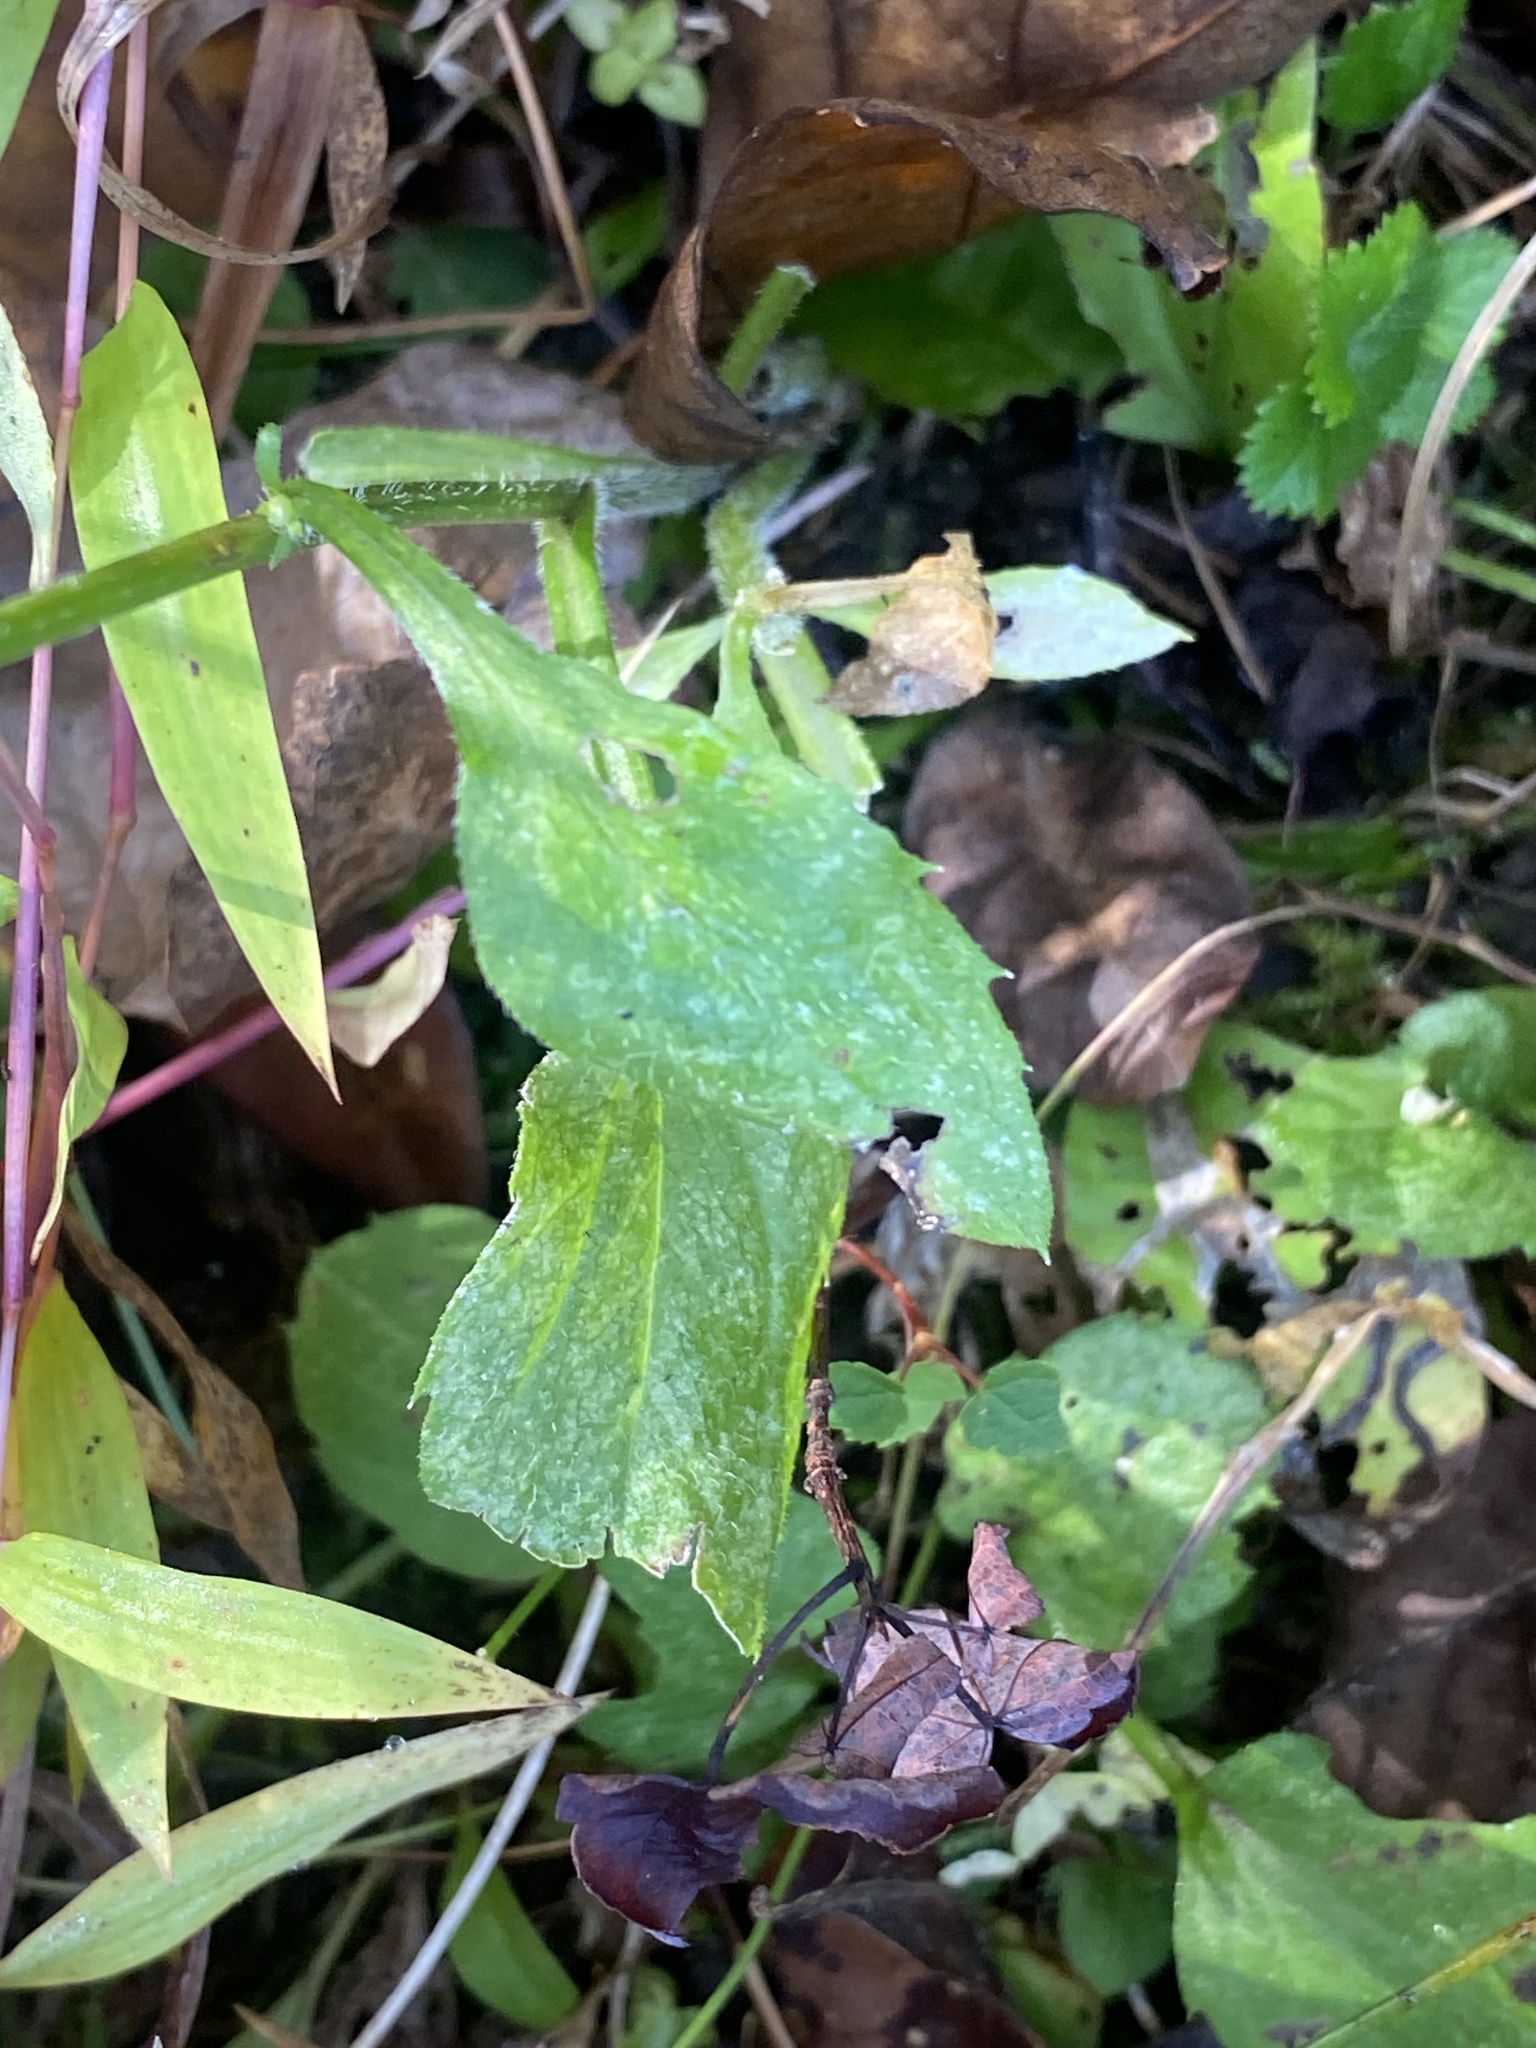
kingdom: Plantae
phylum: Tracheophyta
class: Magnoliopsida
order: Asterales
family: Asteraceae
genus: Erigeron
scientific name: Erigeron annuus
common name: Tall fleabane
